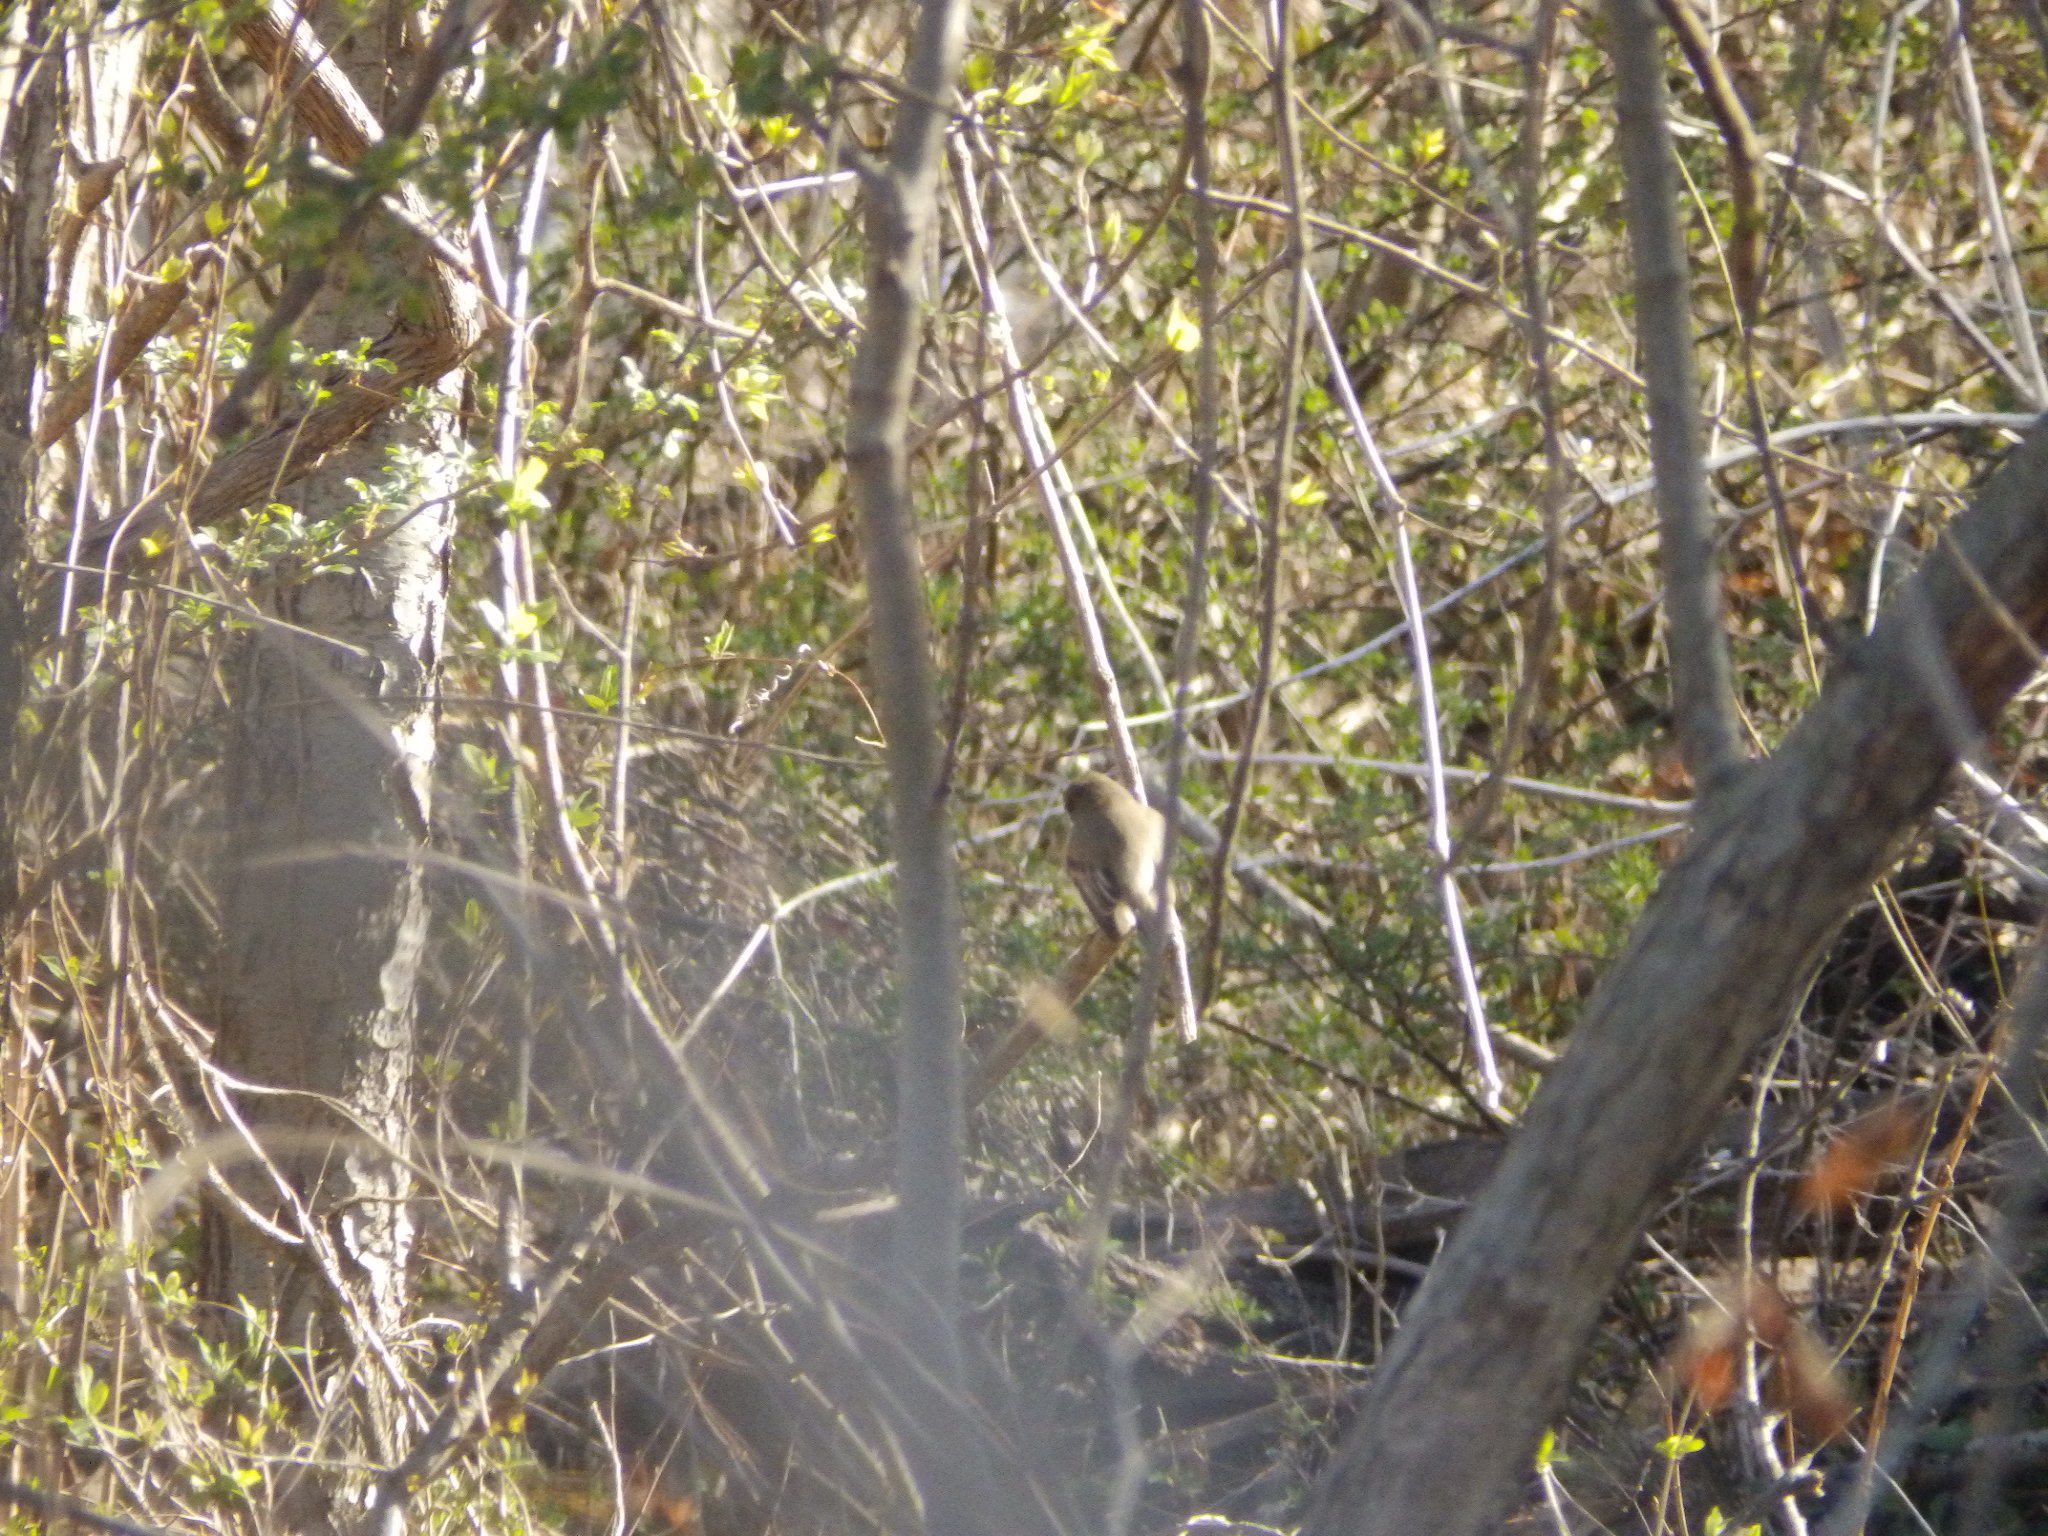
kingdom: Animalia
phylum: Chordata
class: Aves
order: Passeriformes
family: Tyrannidae
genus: Sayornis
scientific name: Sayornis phoebe
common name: Eastern phoebe
